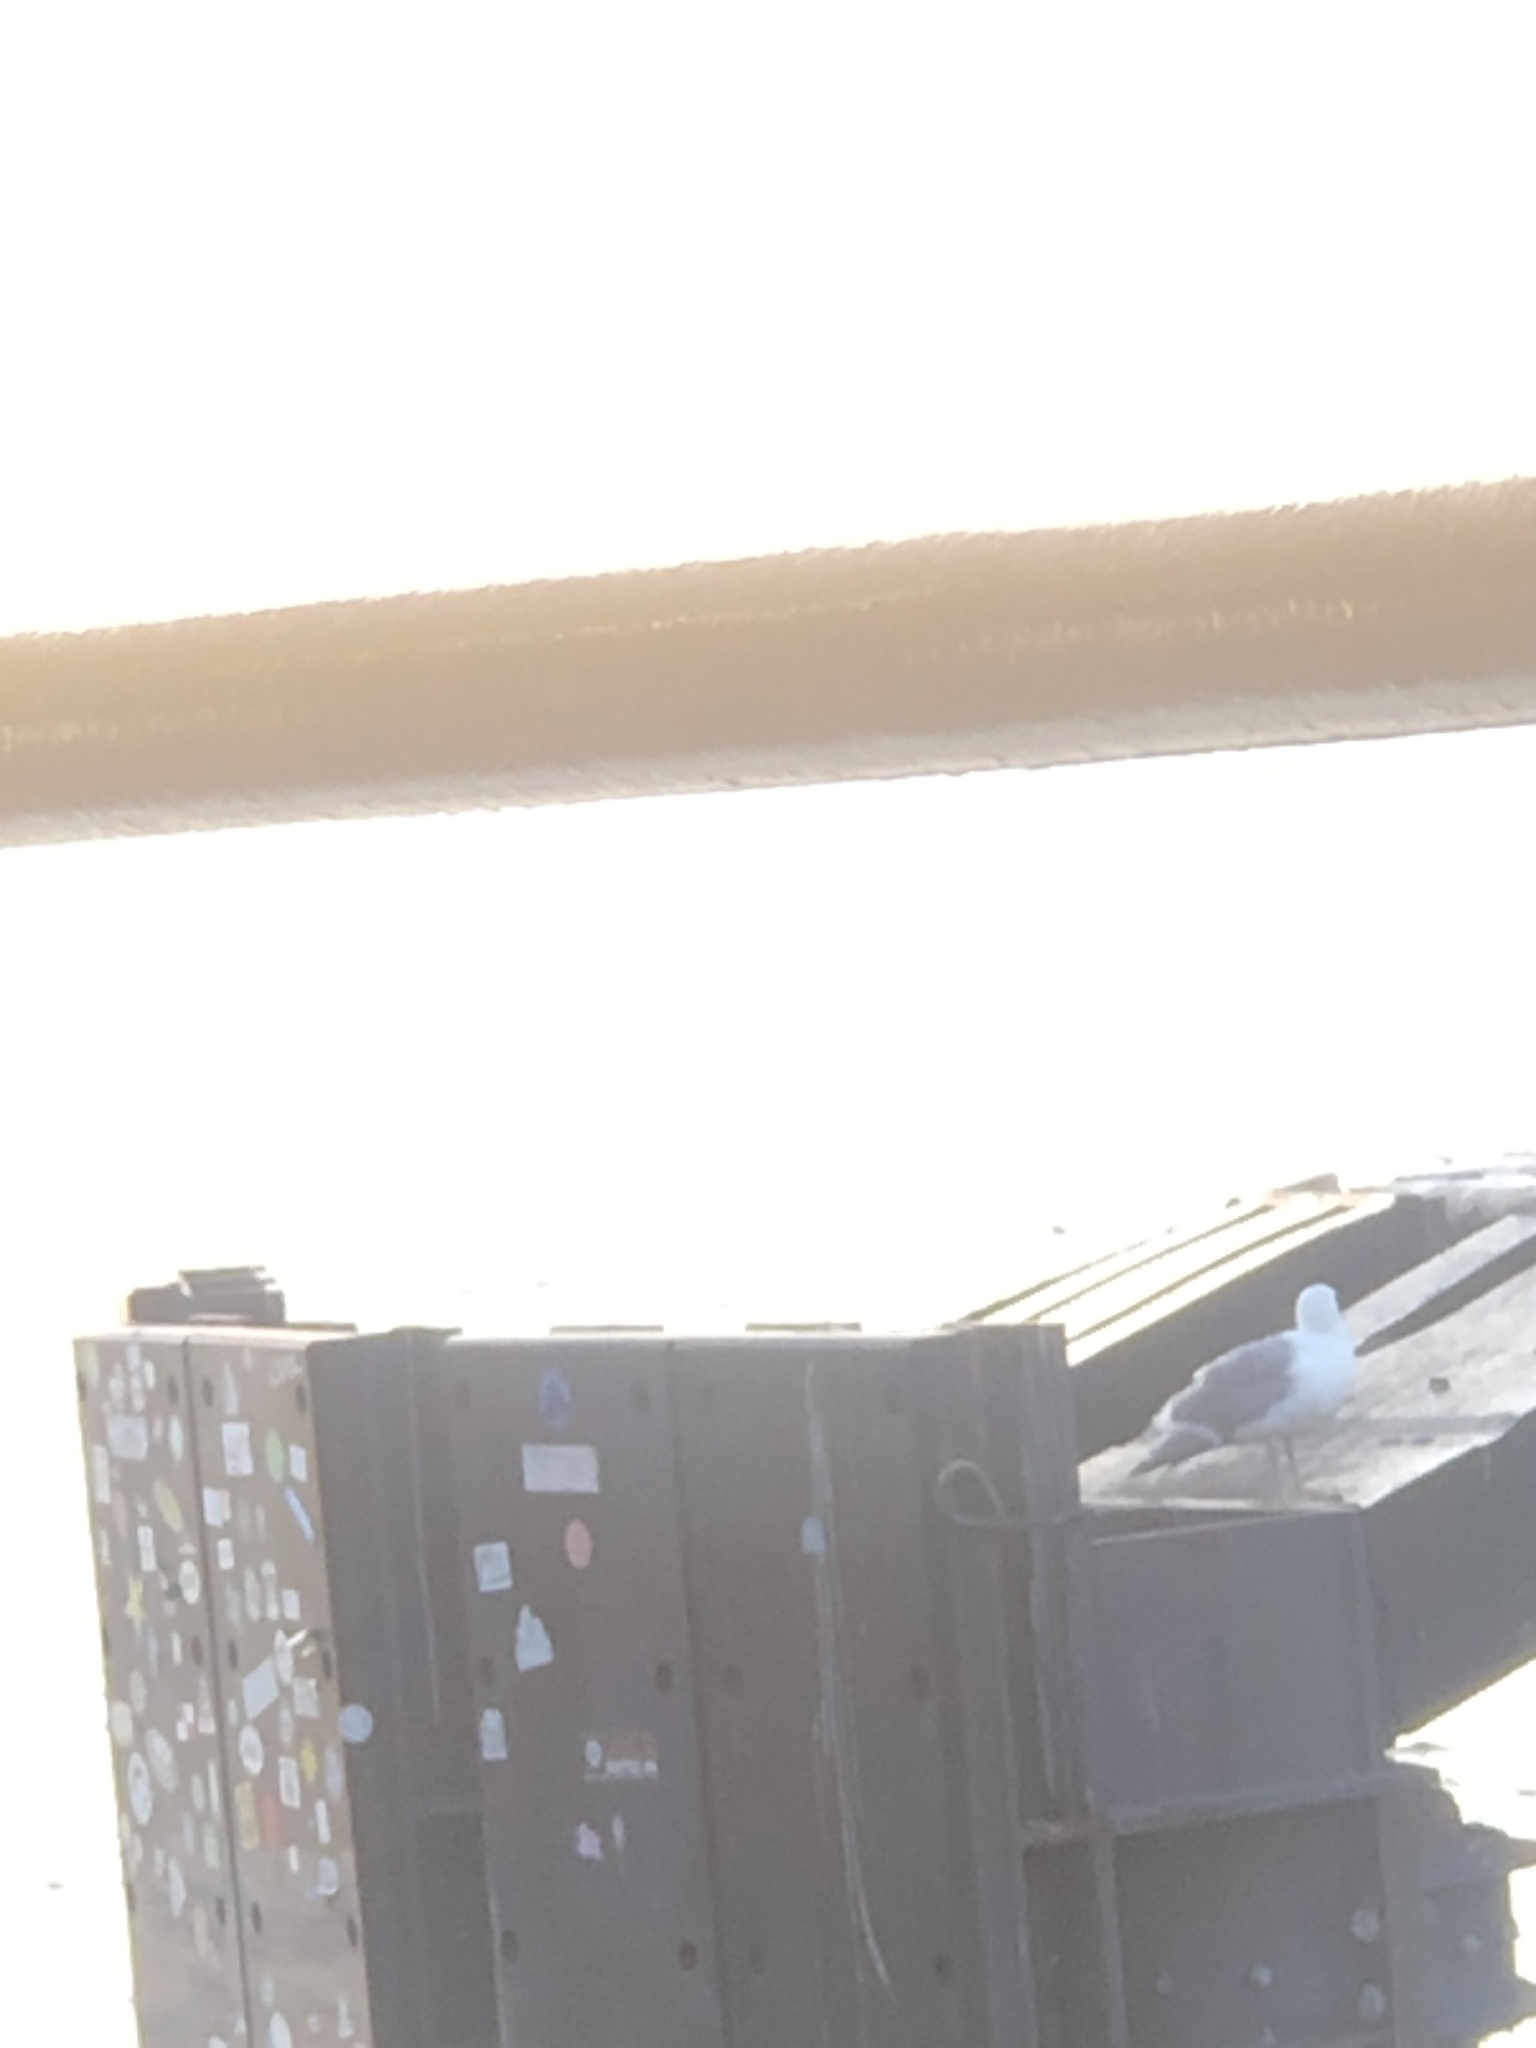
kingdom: Animalia
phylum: Chordata
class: Aves
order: Charadriiformes
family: Laridae
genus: Larus
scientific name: Larus
